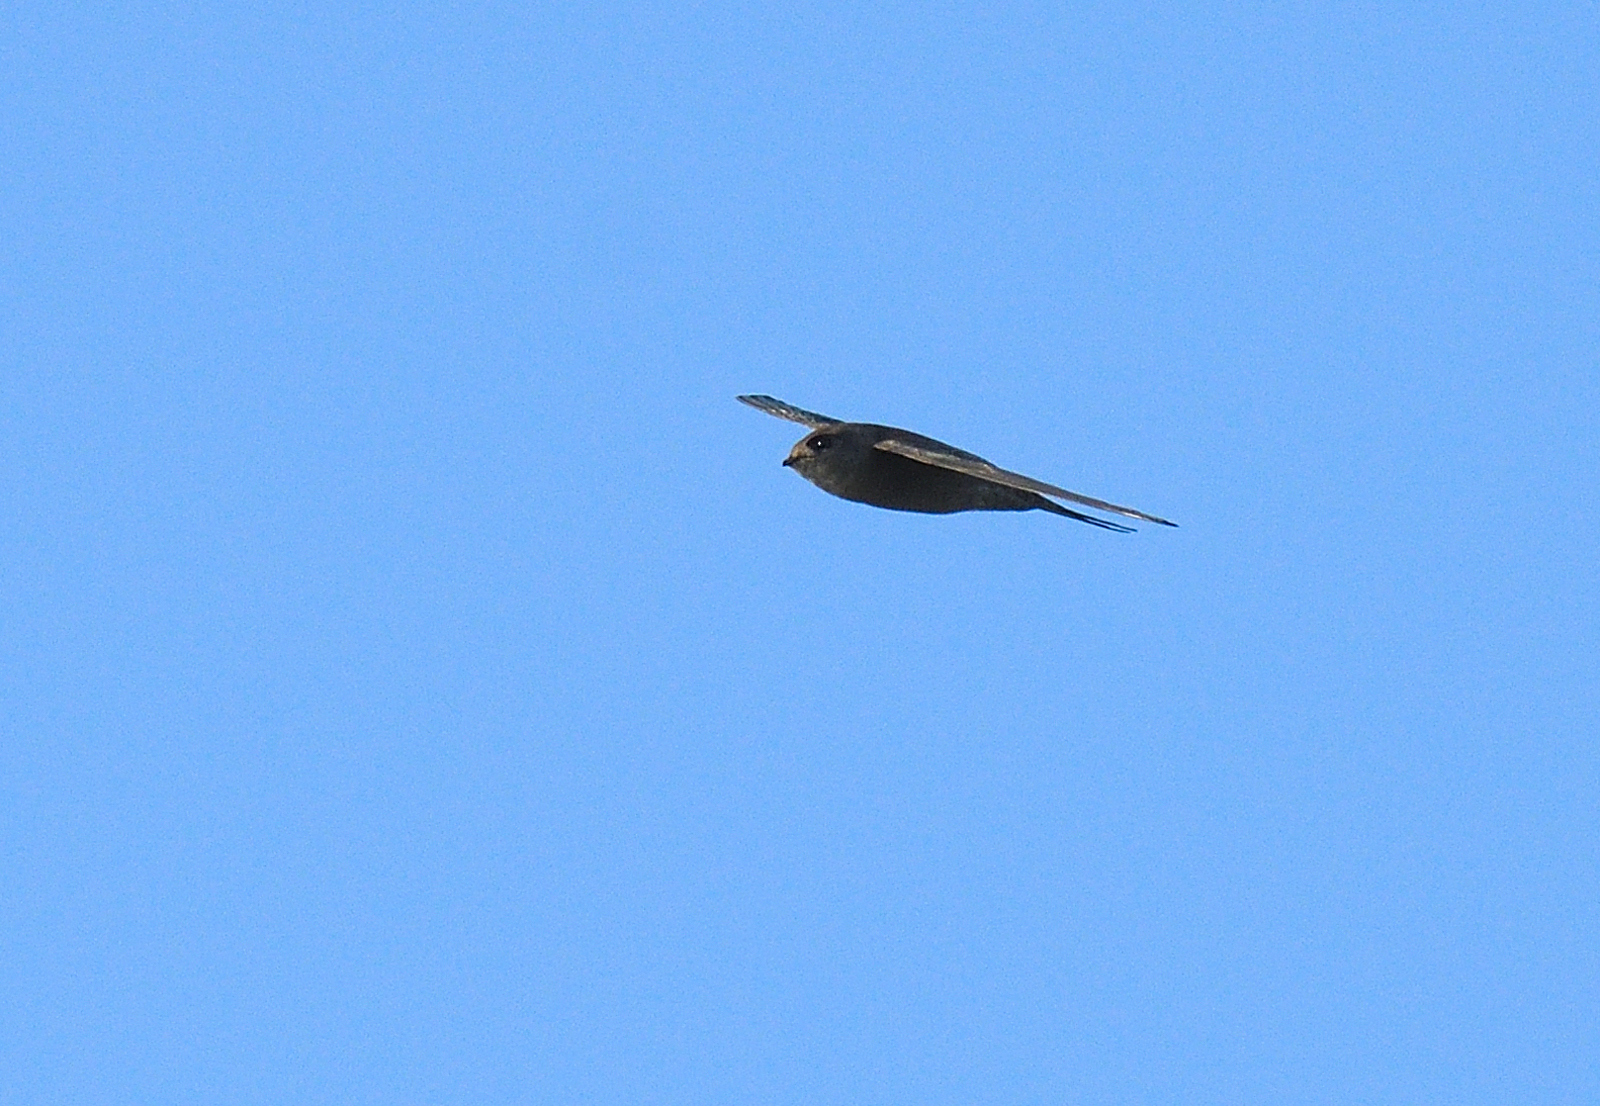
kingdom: Animalia
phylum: Chordata
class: Aves
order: Apodiformes
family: Apodidae
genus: Cypsiurus
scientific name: Cypsiurus balasiensis
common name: Asian palm swift
